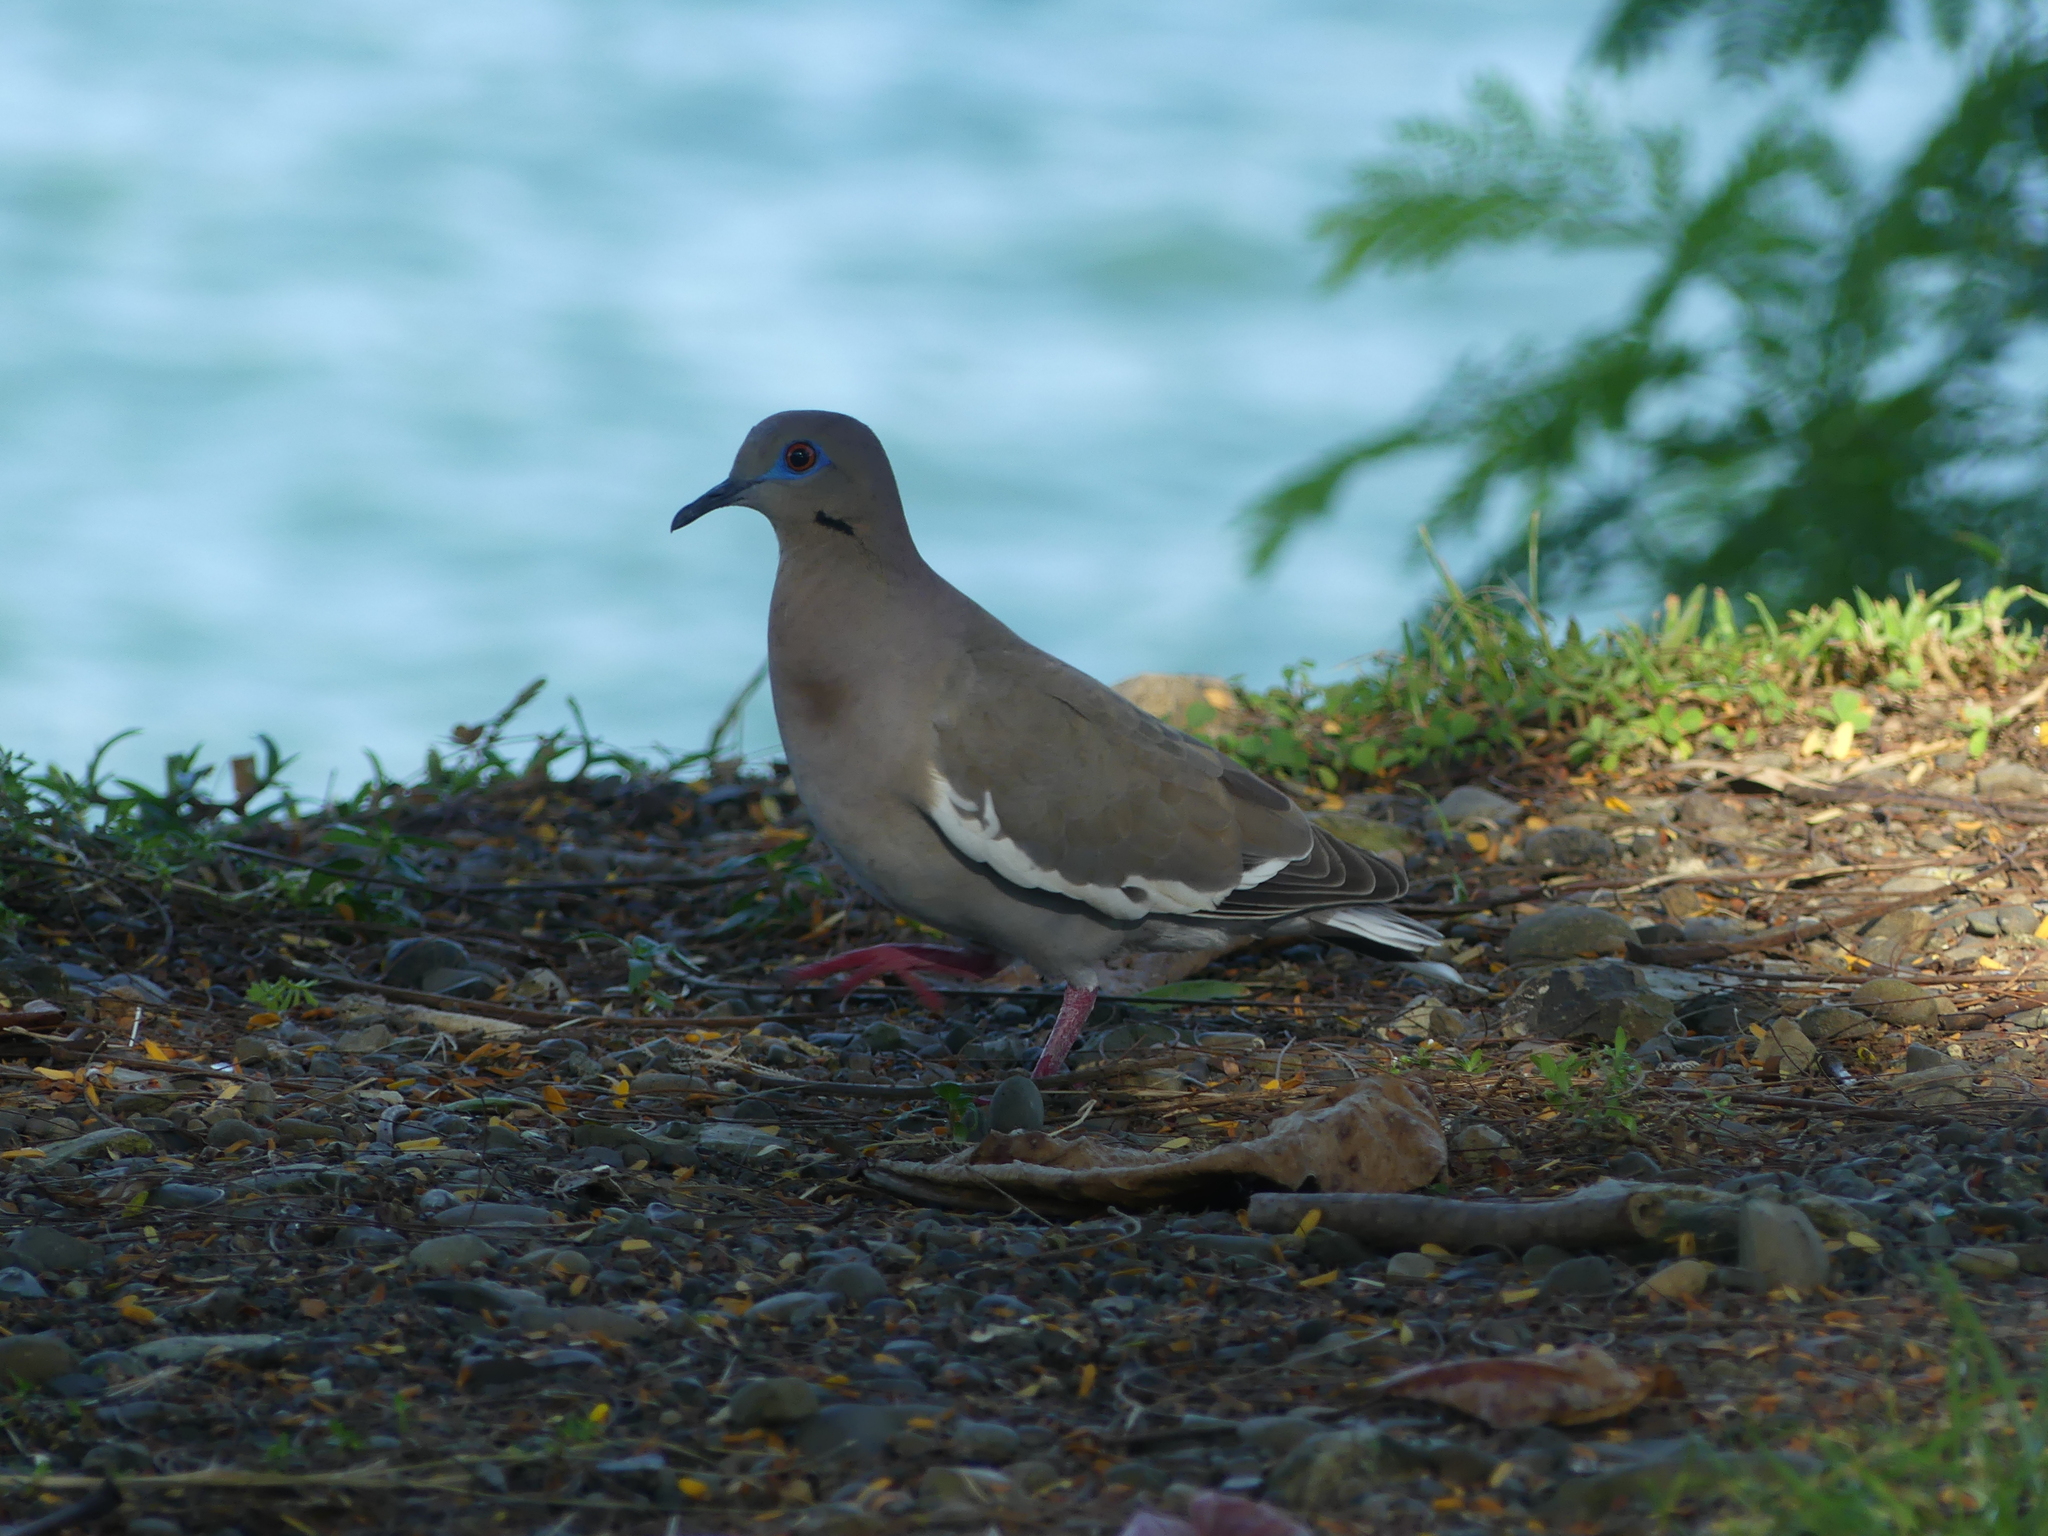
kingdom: Animalia
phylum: Chordata
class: Aves
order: Columbiformes
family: Columbidae
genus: Zenaida
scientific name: Zenaida asiatica
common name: White-winged dove
